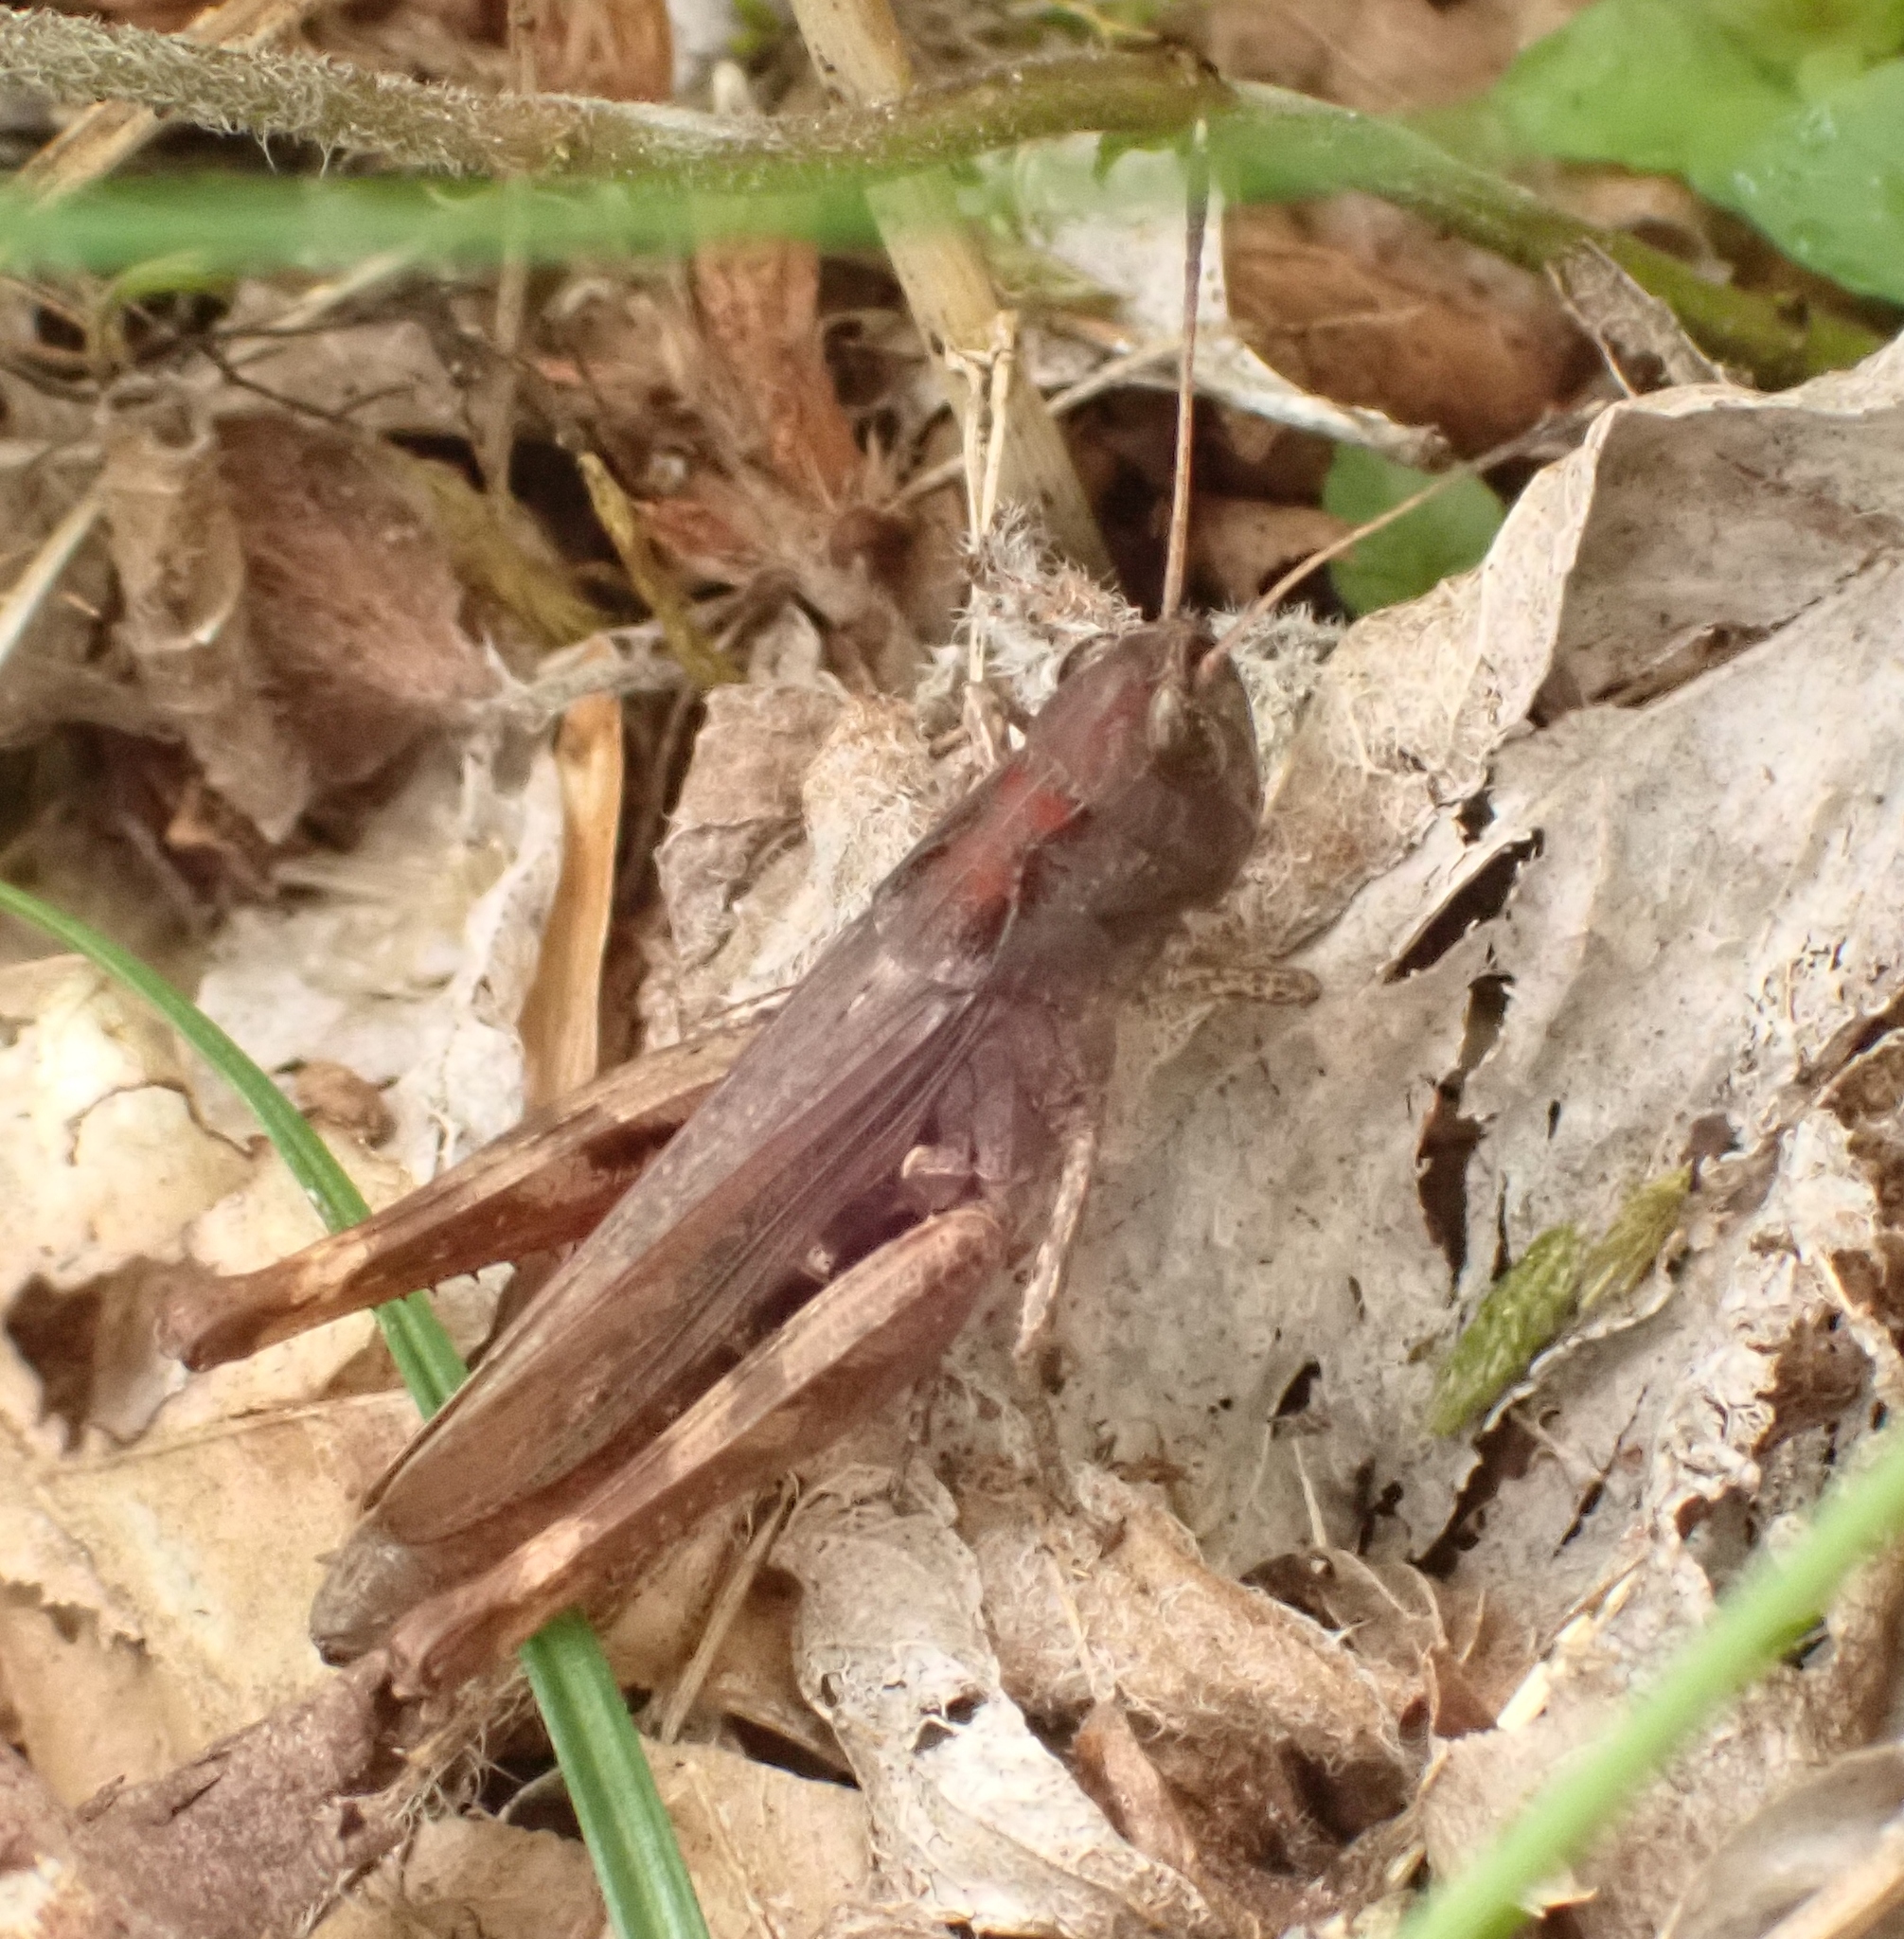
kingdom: Animalia
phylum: Arthropoda
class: Insecta
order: Orthoptera
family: Acrididae
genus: Gomphocerippus
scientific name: Gomphocerippus rufus
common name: Rufous grasshopper
